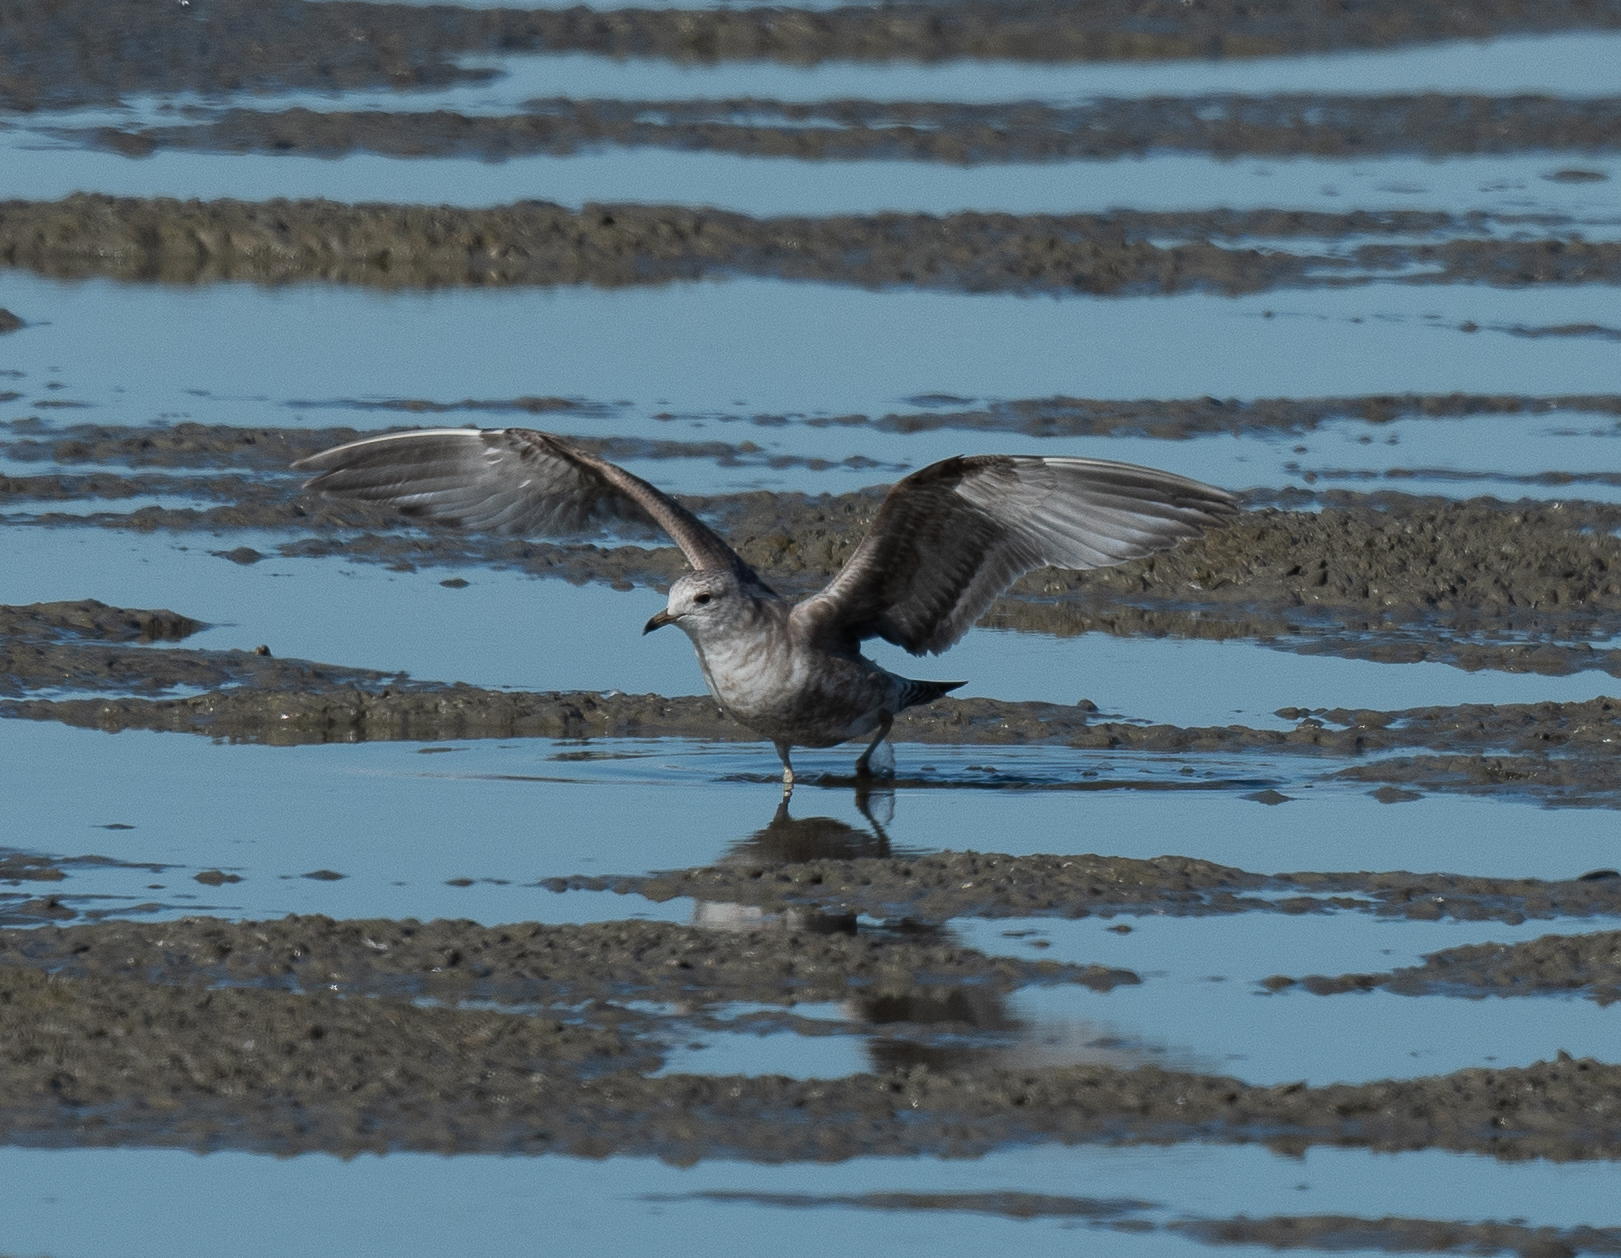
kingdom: Animalia
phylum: Chordata
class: Aves
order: Charadriiformes
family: Laridae
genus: Larus
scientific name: Larus brachyrhynchus
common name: Short-billed gull
